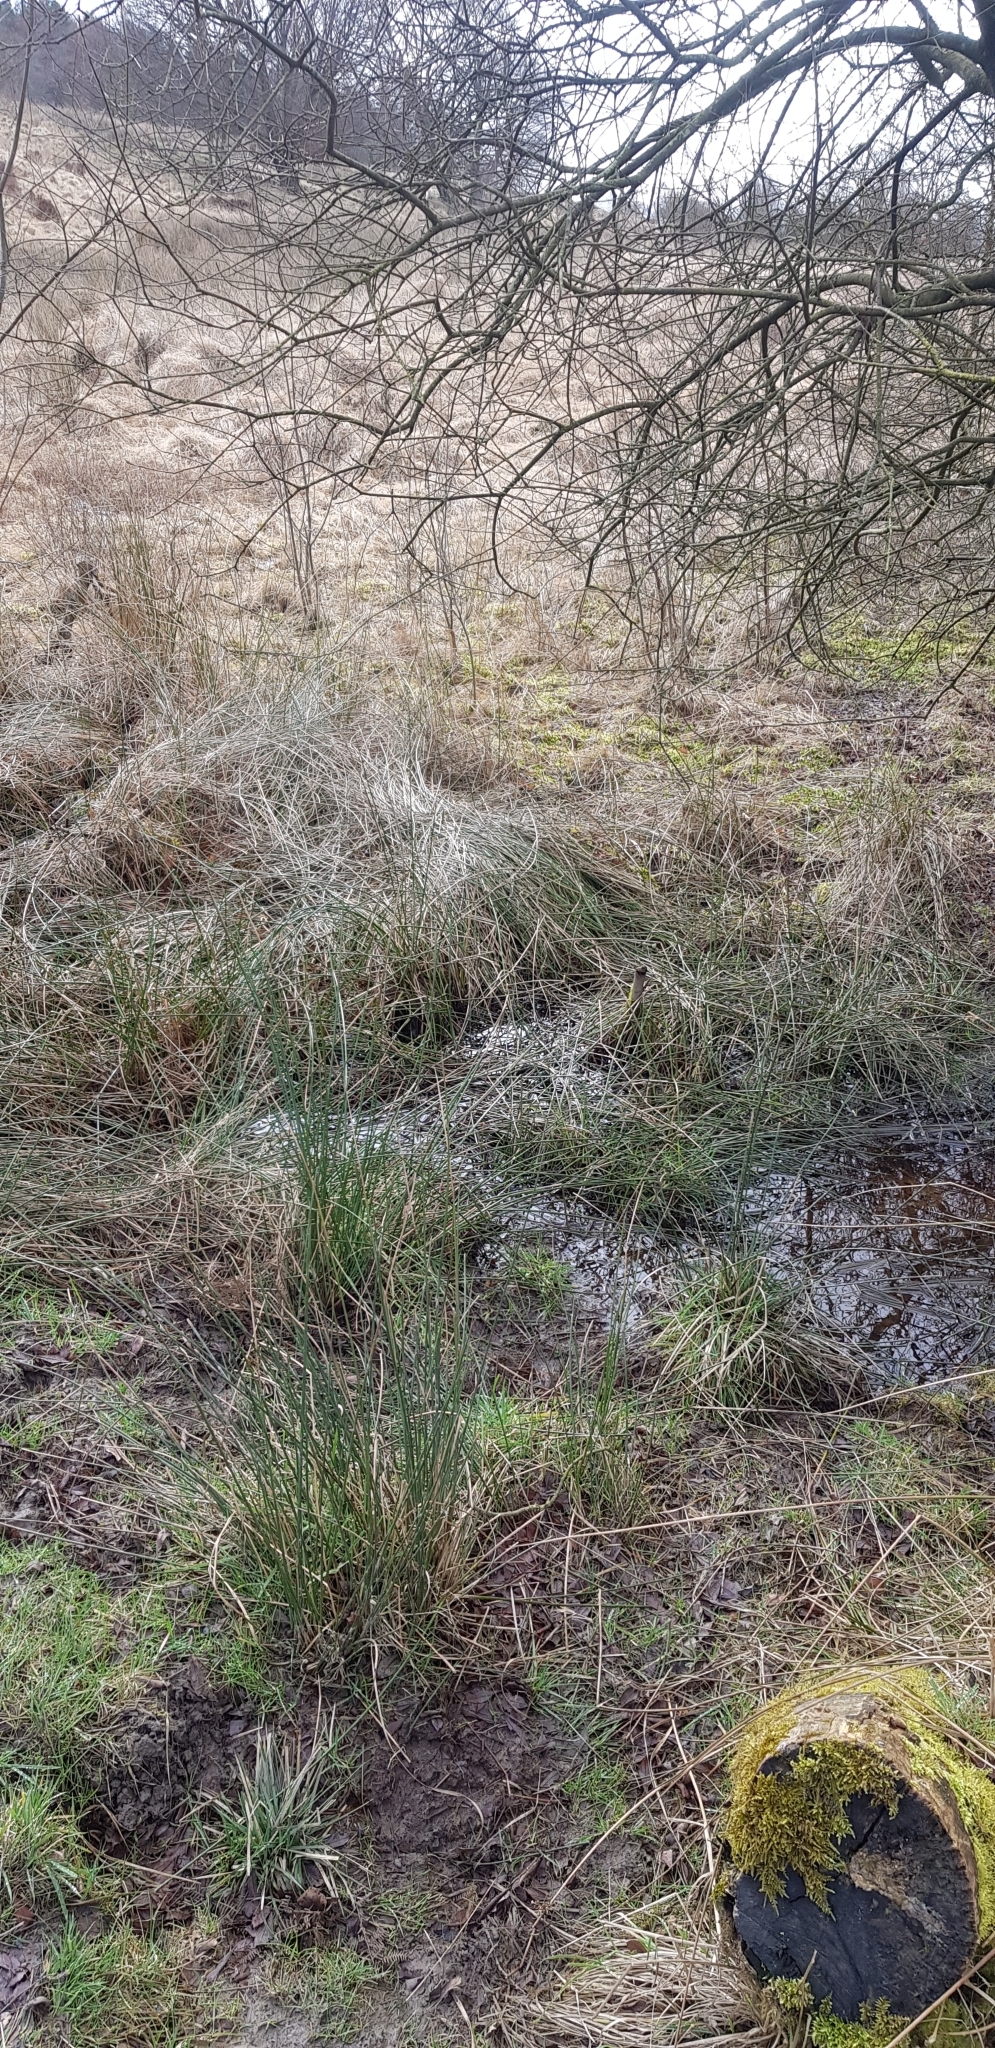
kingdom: Plantae
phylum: Bryophyta
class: Bryopsida
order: Orthotrichales
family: Orthotrichaceae
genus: Plenogemma
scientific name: Plenogemma phyllantha
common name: Frizzled pincushion
